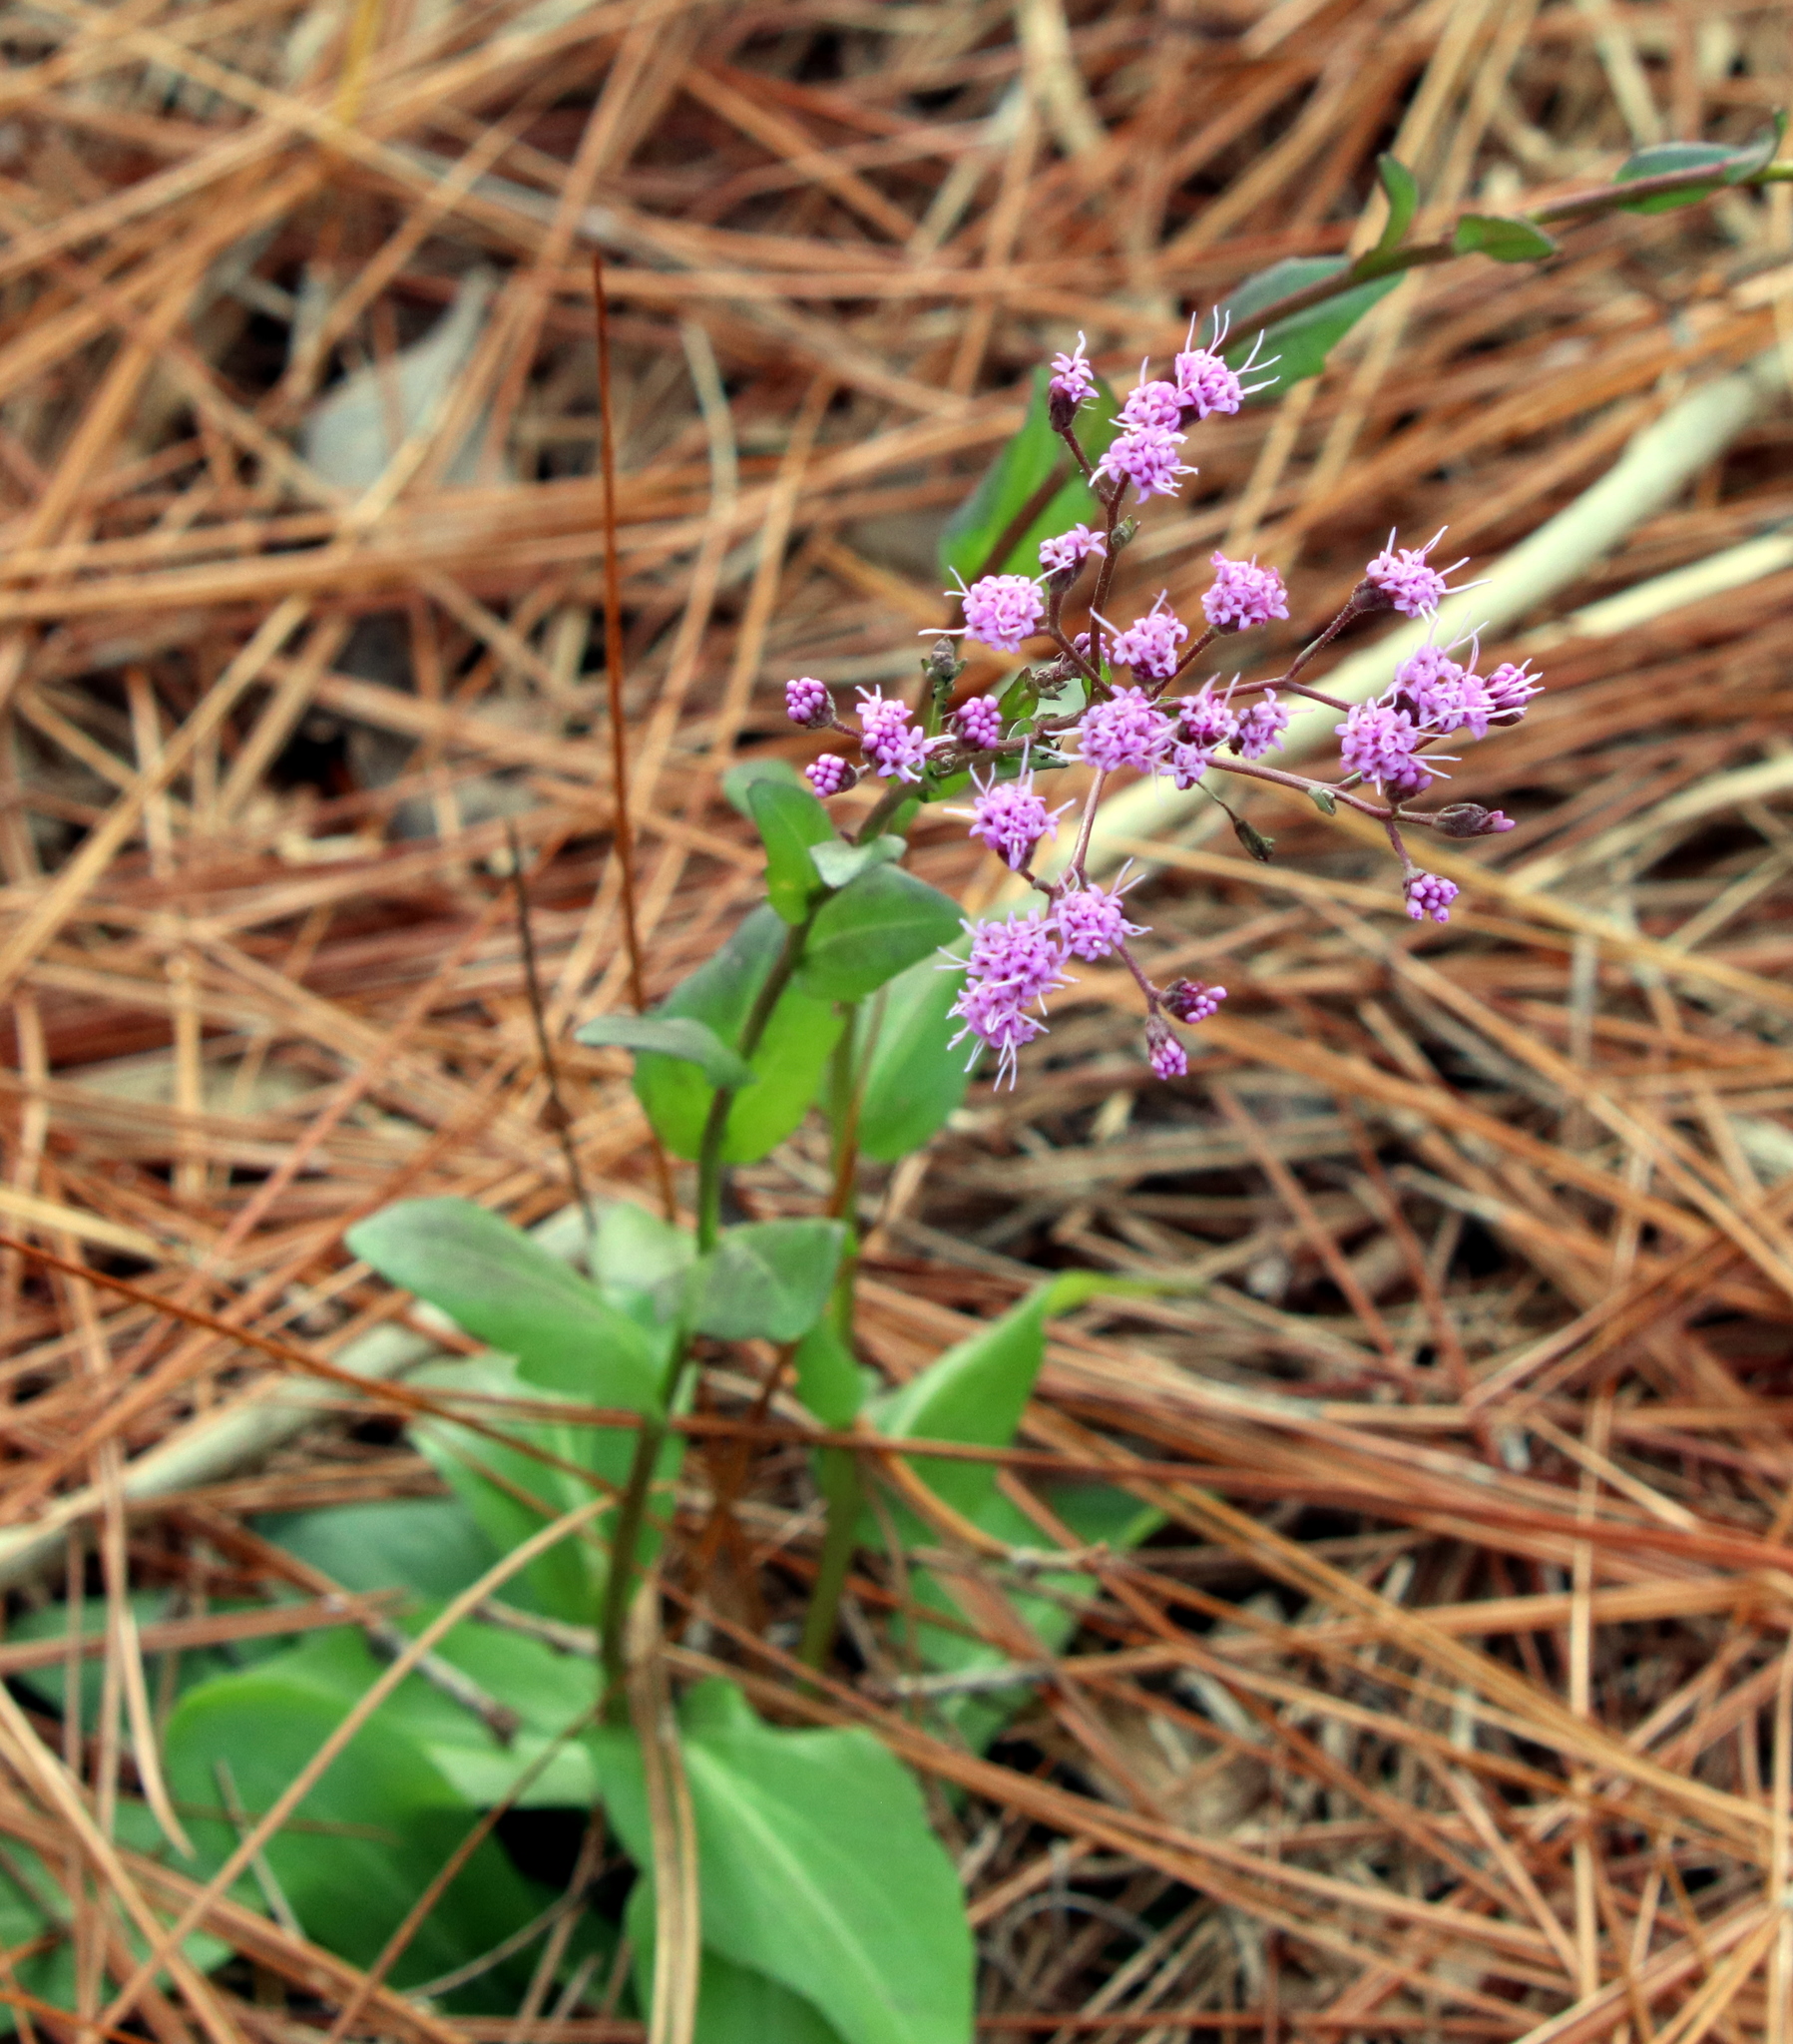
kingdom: Plantae
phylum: Tracheophyta
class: Magnoliopsida
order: Asterales
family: Asteraceae
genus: Carphephorus
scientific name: Carphephorus odoratissimus
